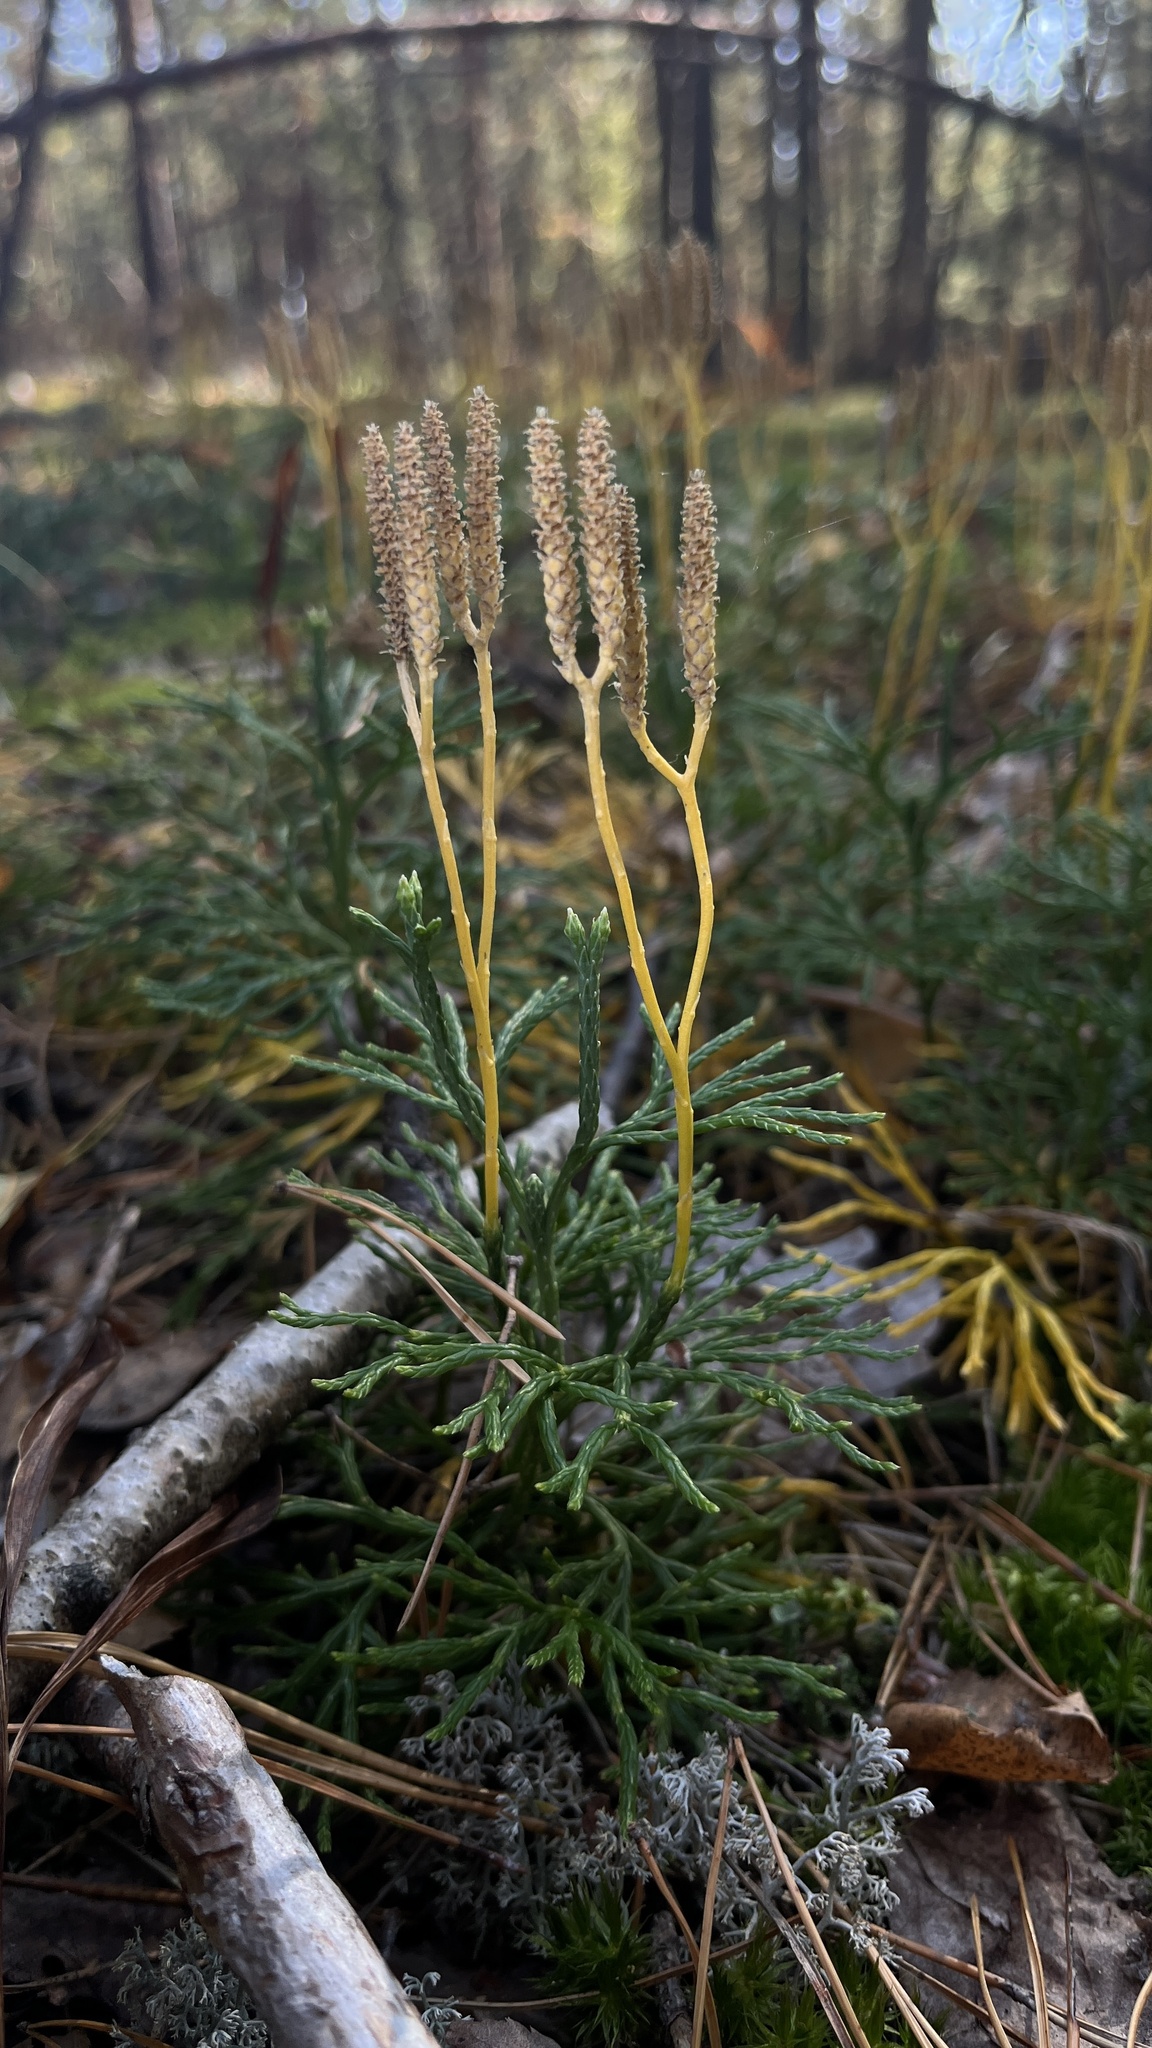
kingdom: Plantae
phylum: Tracheophyta
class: Lycopodiopsida
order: Lycopodiales
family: Lycopodiaceae
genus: Diphasiastrum
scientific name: Diphasiastrum complanatum
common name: Northern running-pine
